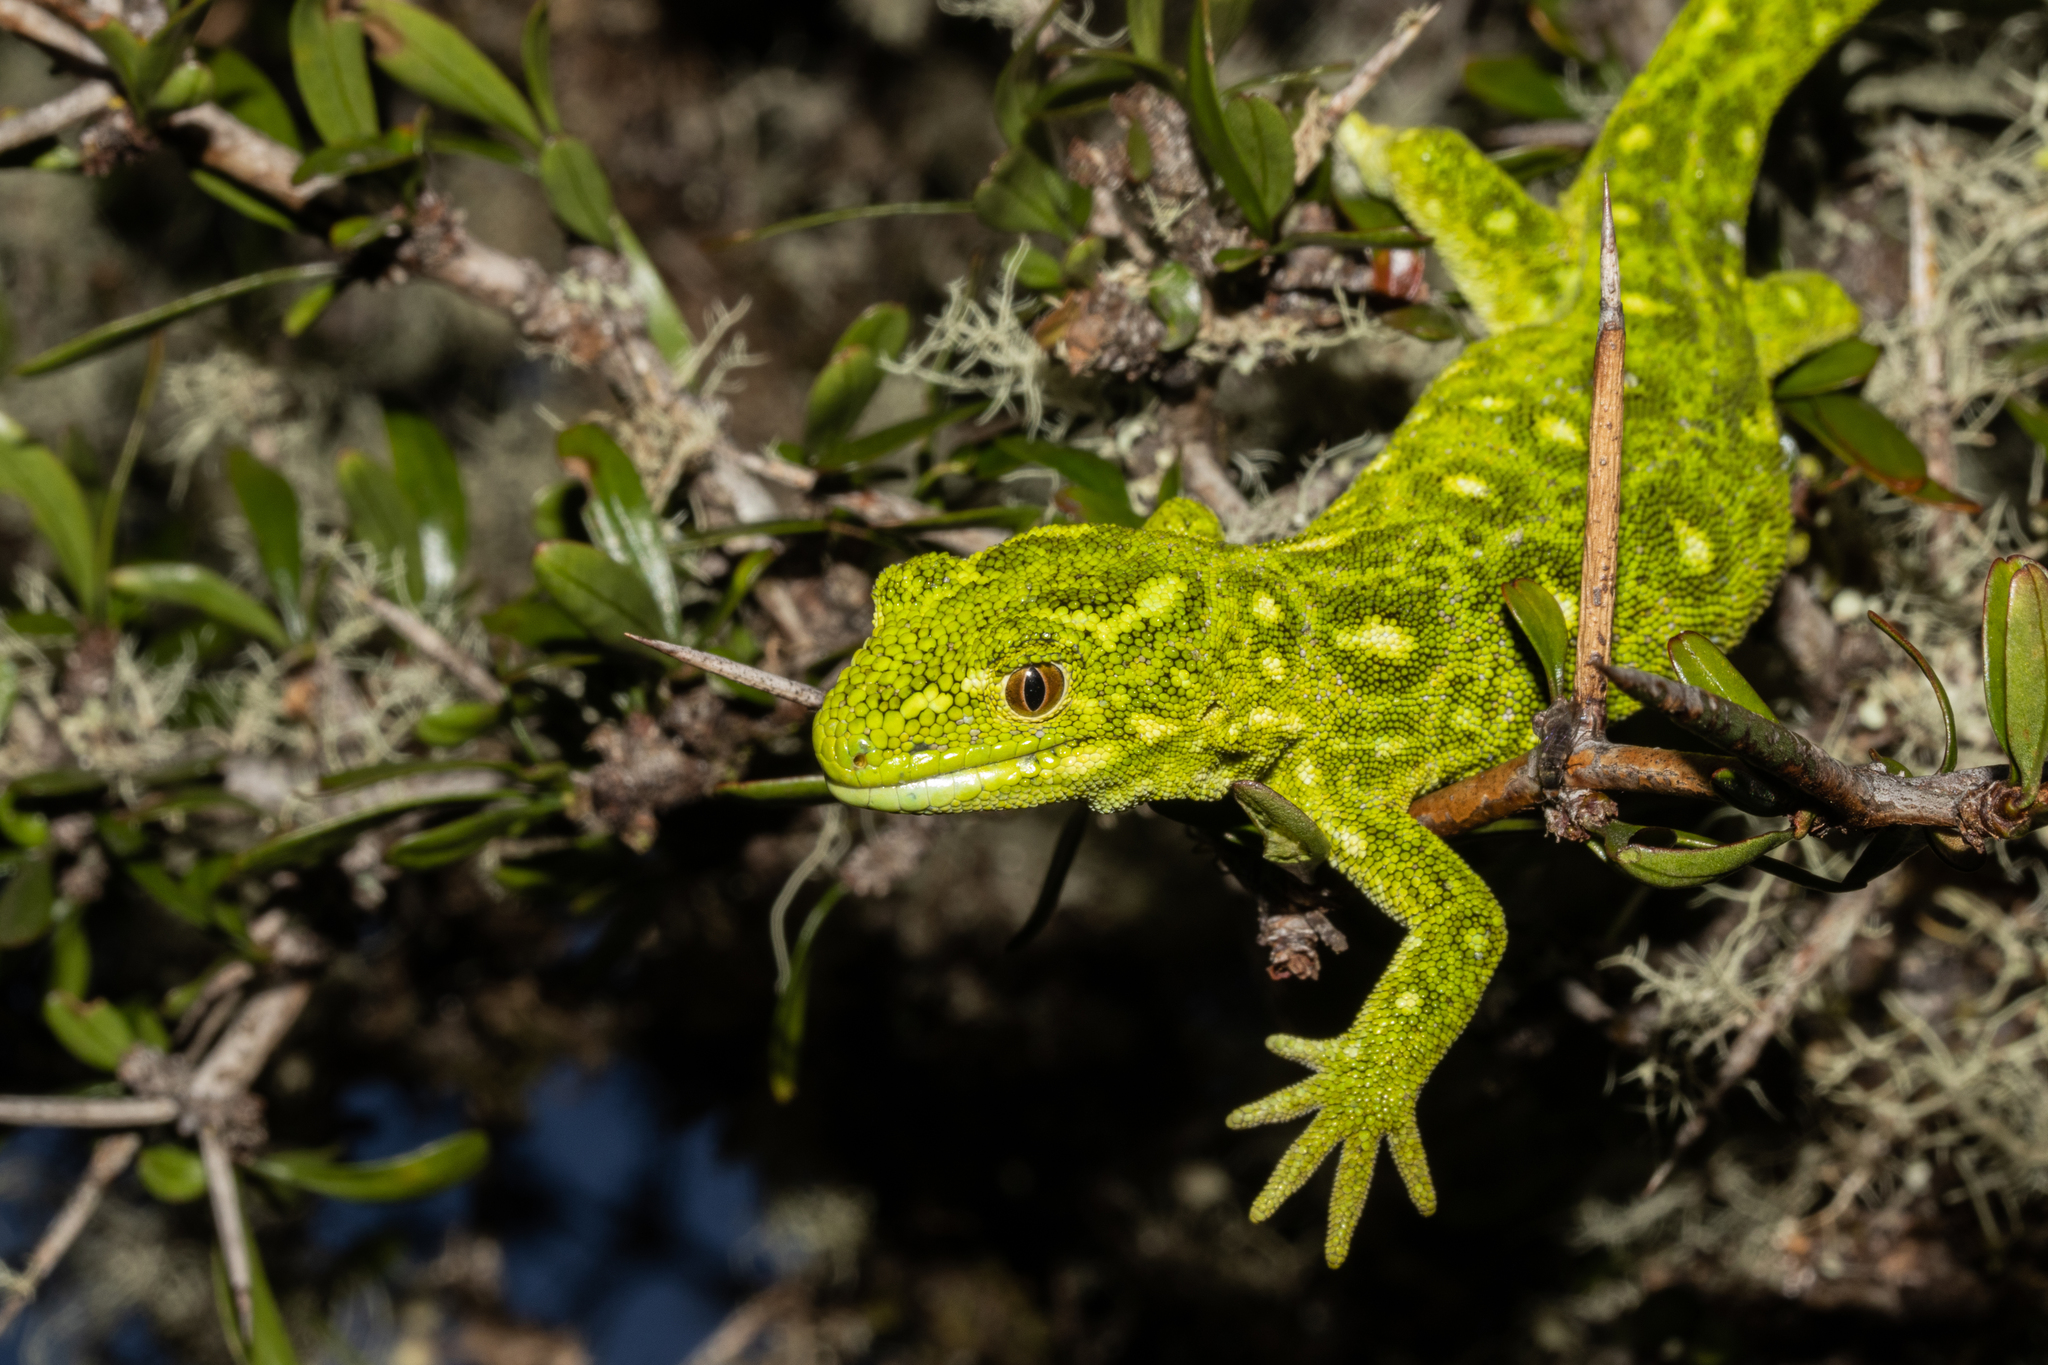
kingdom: Animalia
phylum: Chordata
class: Squamata
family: Diplodactylidae
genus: Naultinus
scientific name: Naultinus tuberculatus
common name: West coast green gecko
